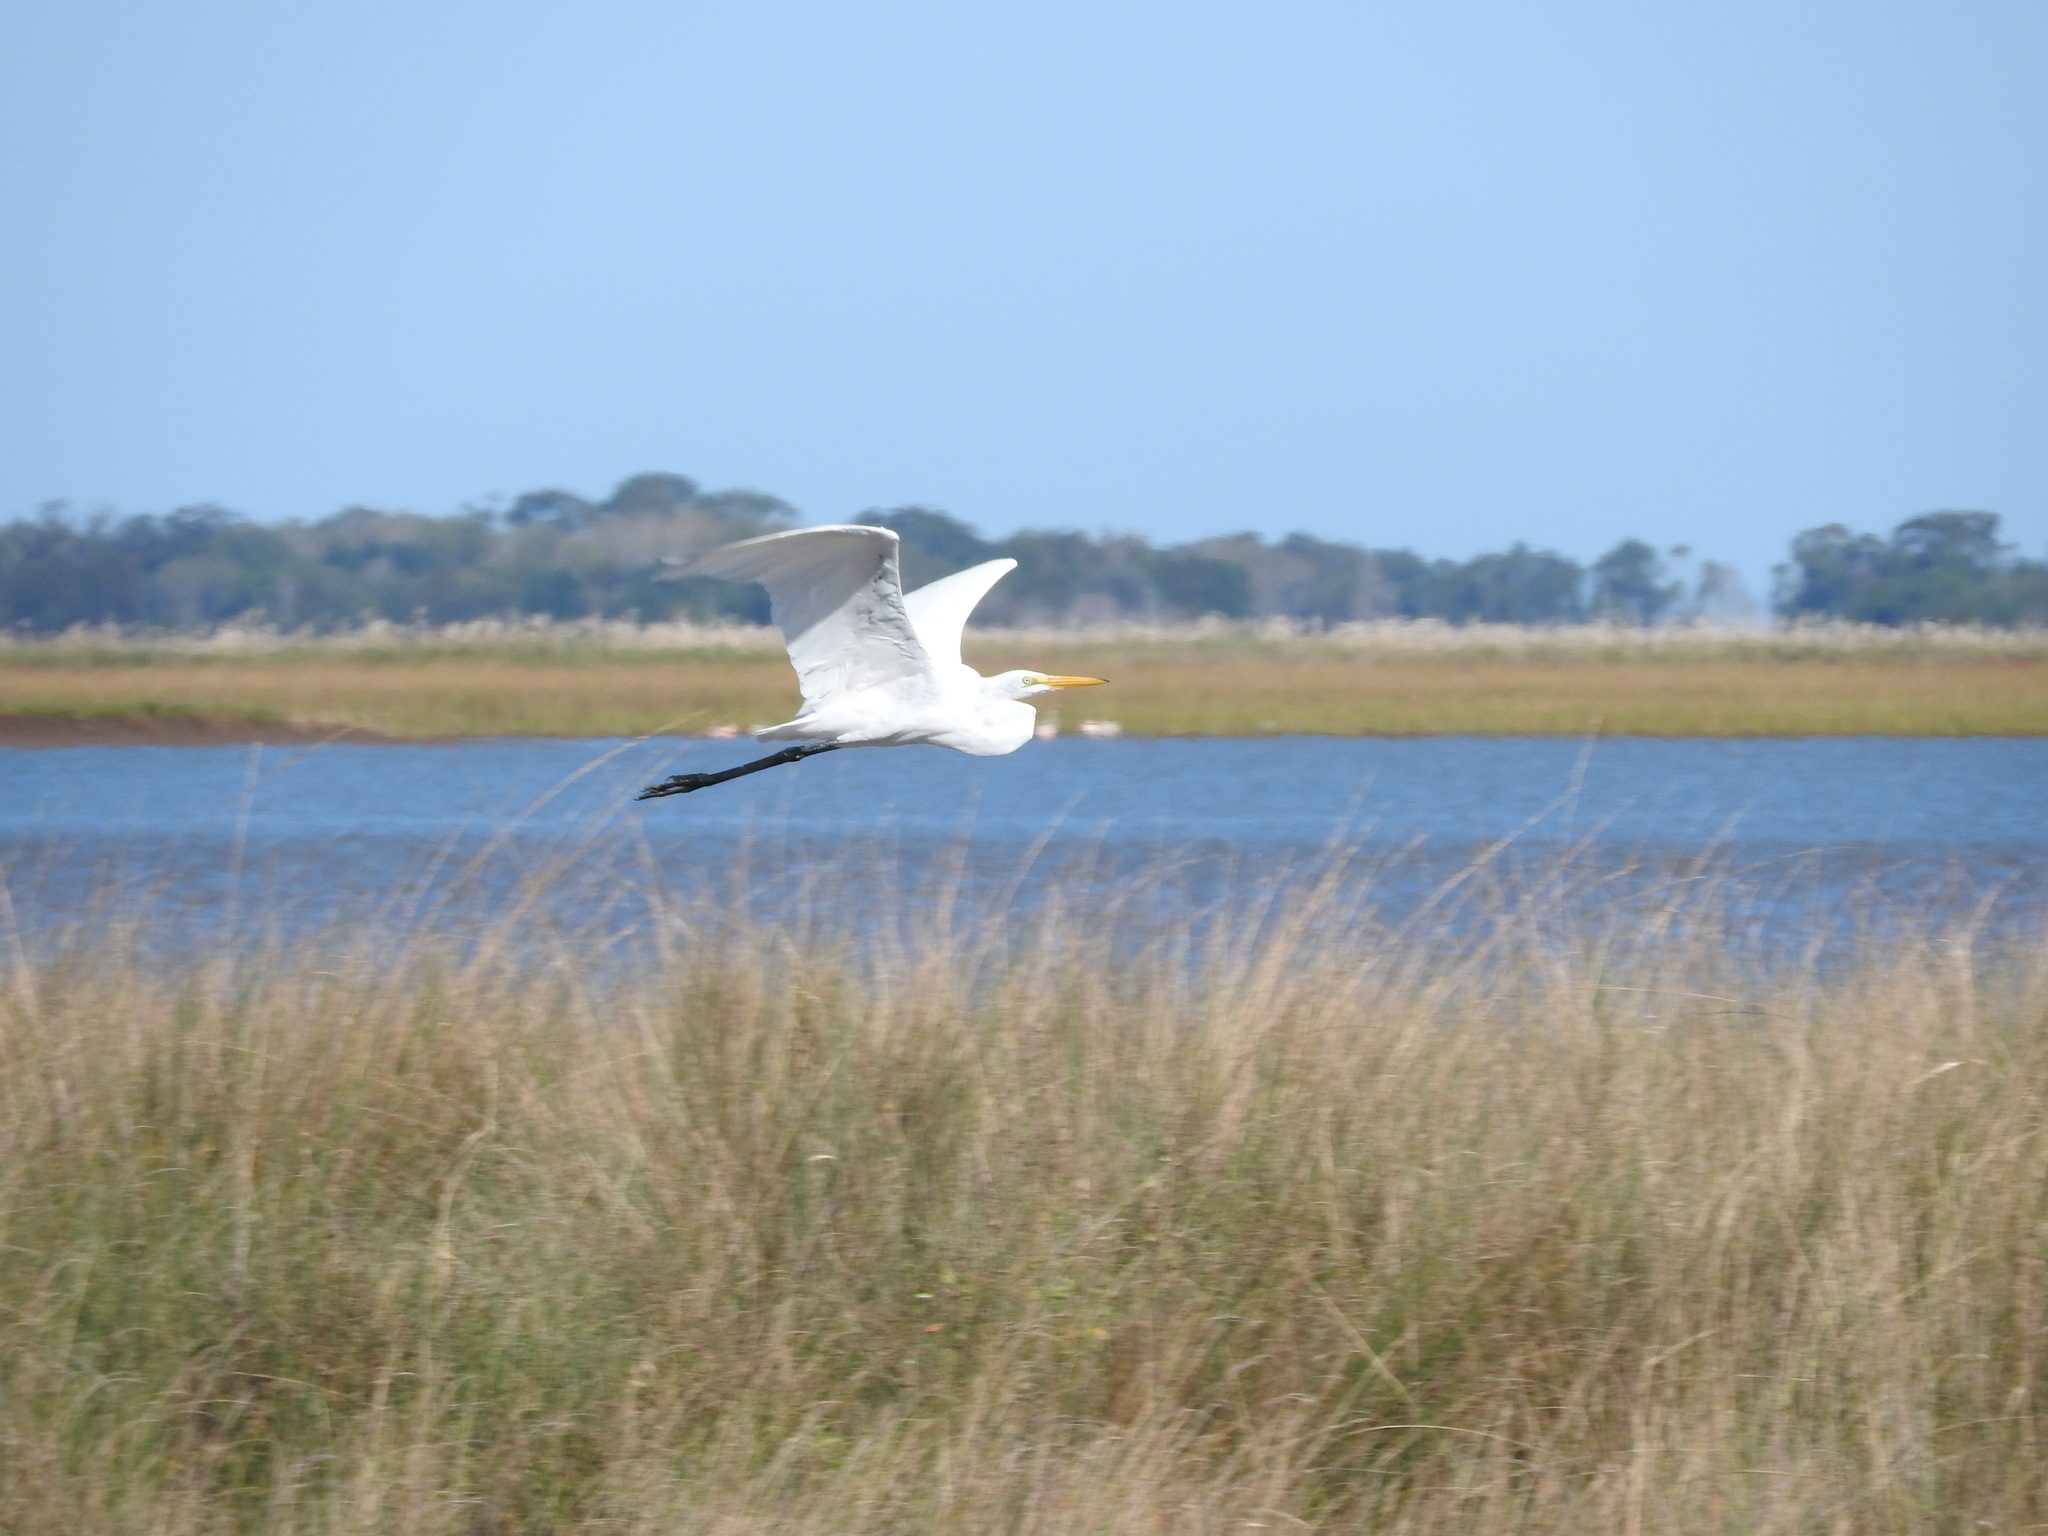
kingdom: Animalia
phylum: Chordata
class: Aves
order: Pelecaniformes
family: Ardeidae
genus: Ardea
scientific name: Ardea alba
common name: Great egret
